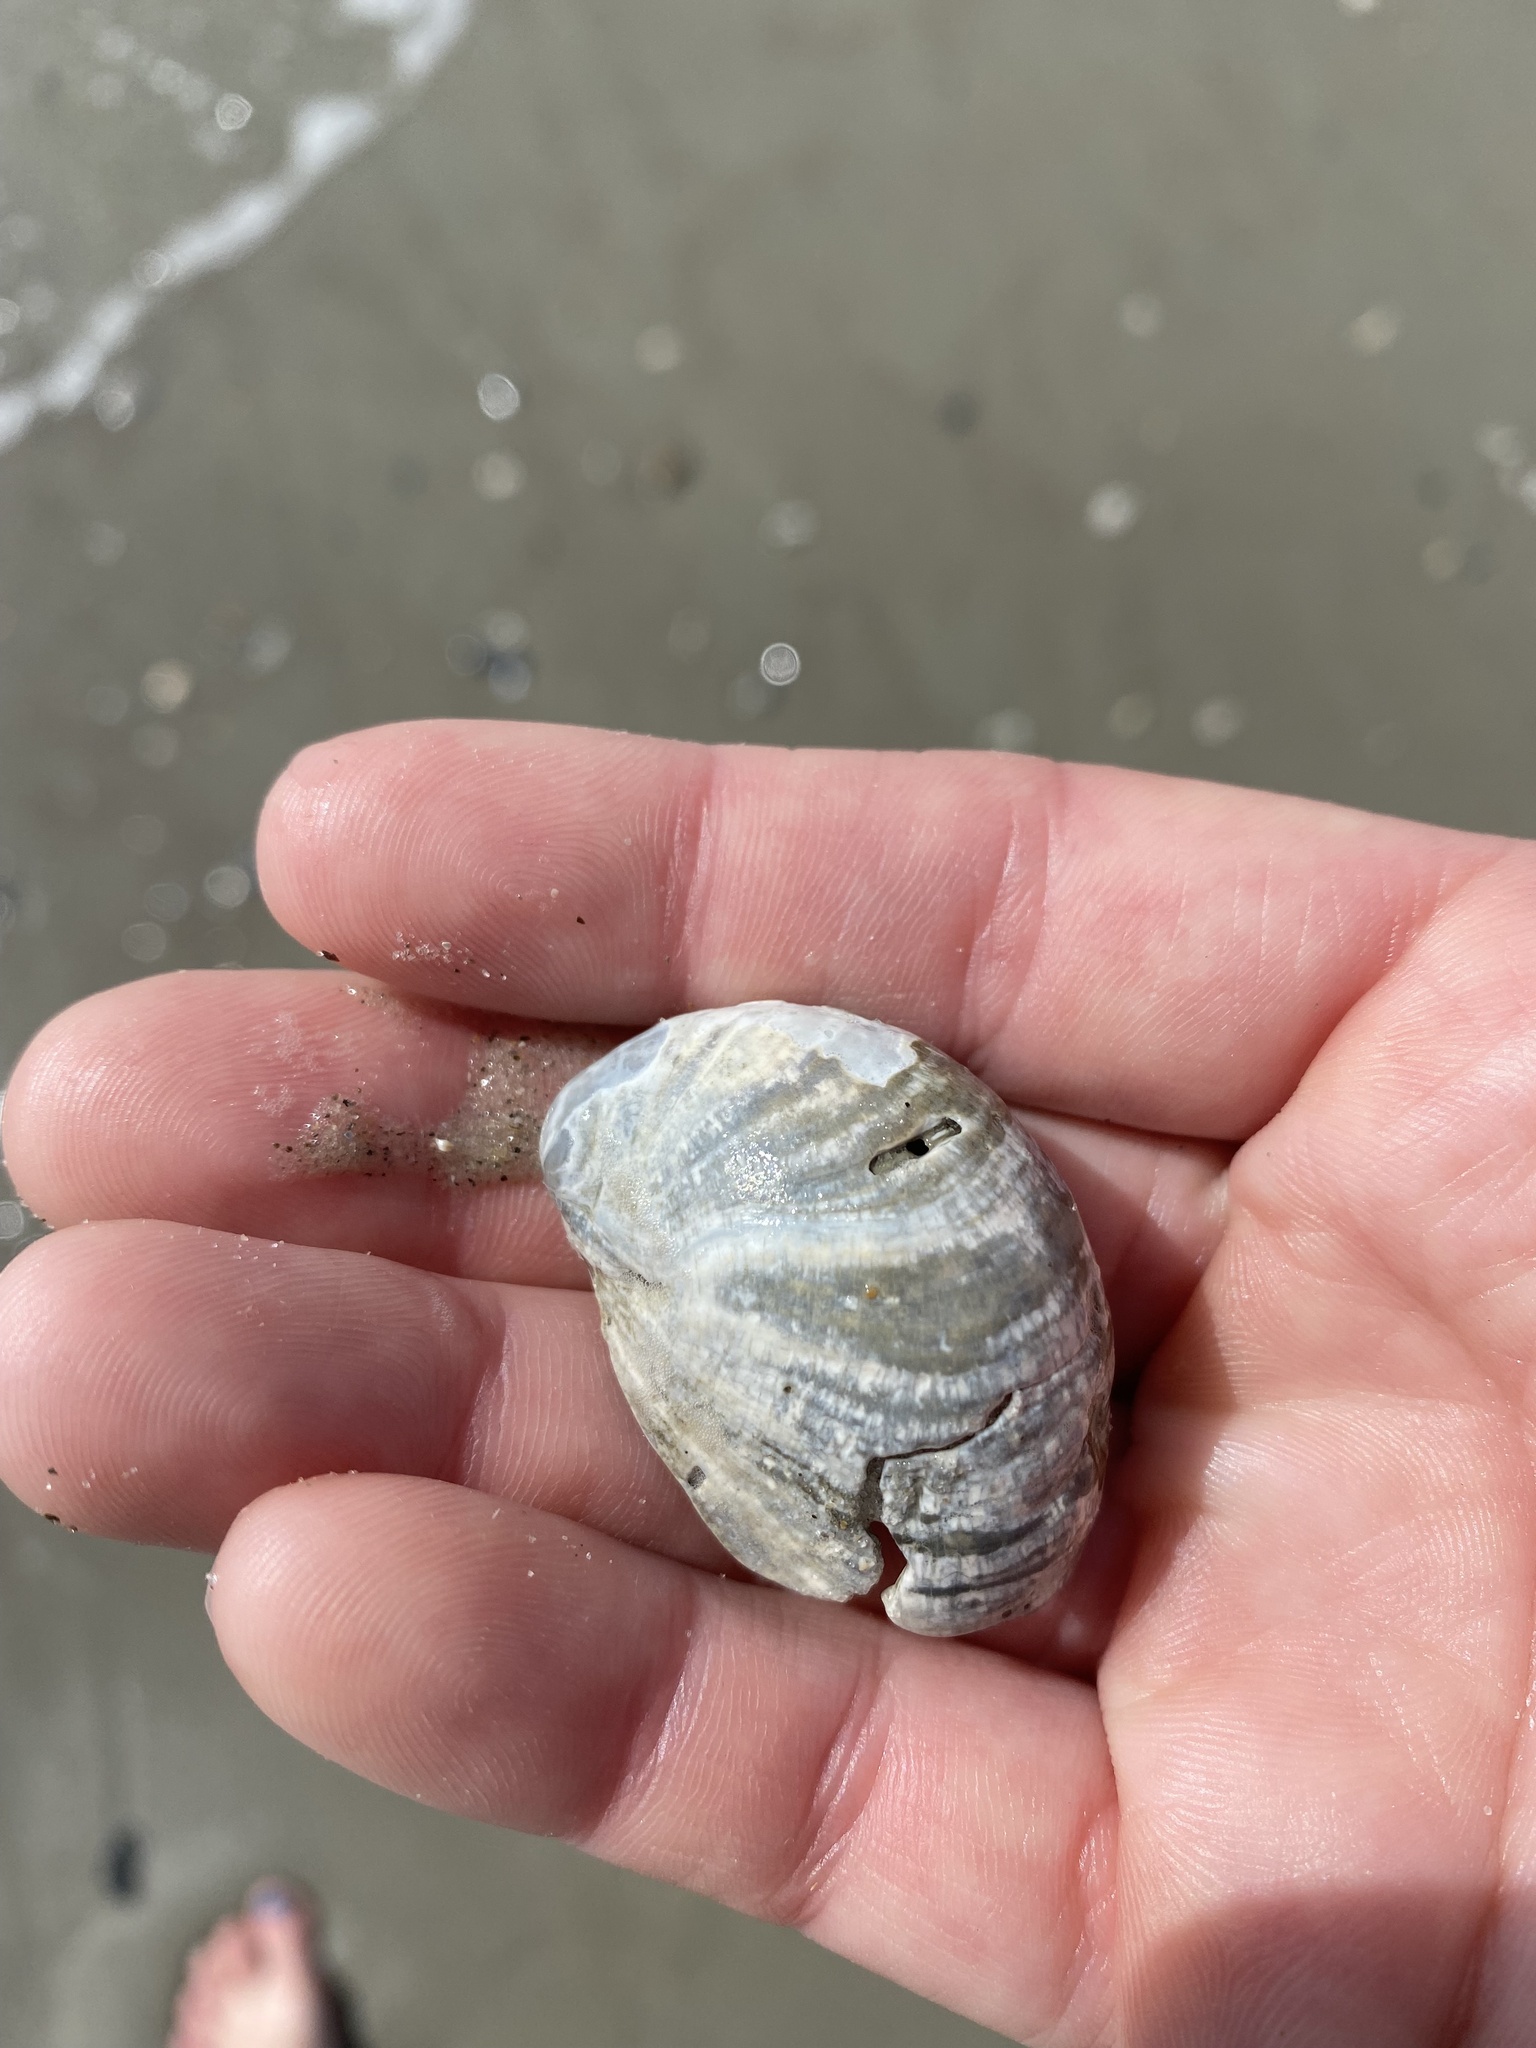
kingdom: Animalia
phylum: Mollusca
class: Gastropoda
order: Littorinimorpha
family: Calyptraeidae
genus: Crepidula
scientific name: Crepidula fornicata
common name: Slipper limpet
